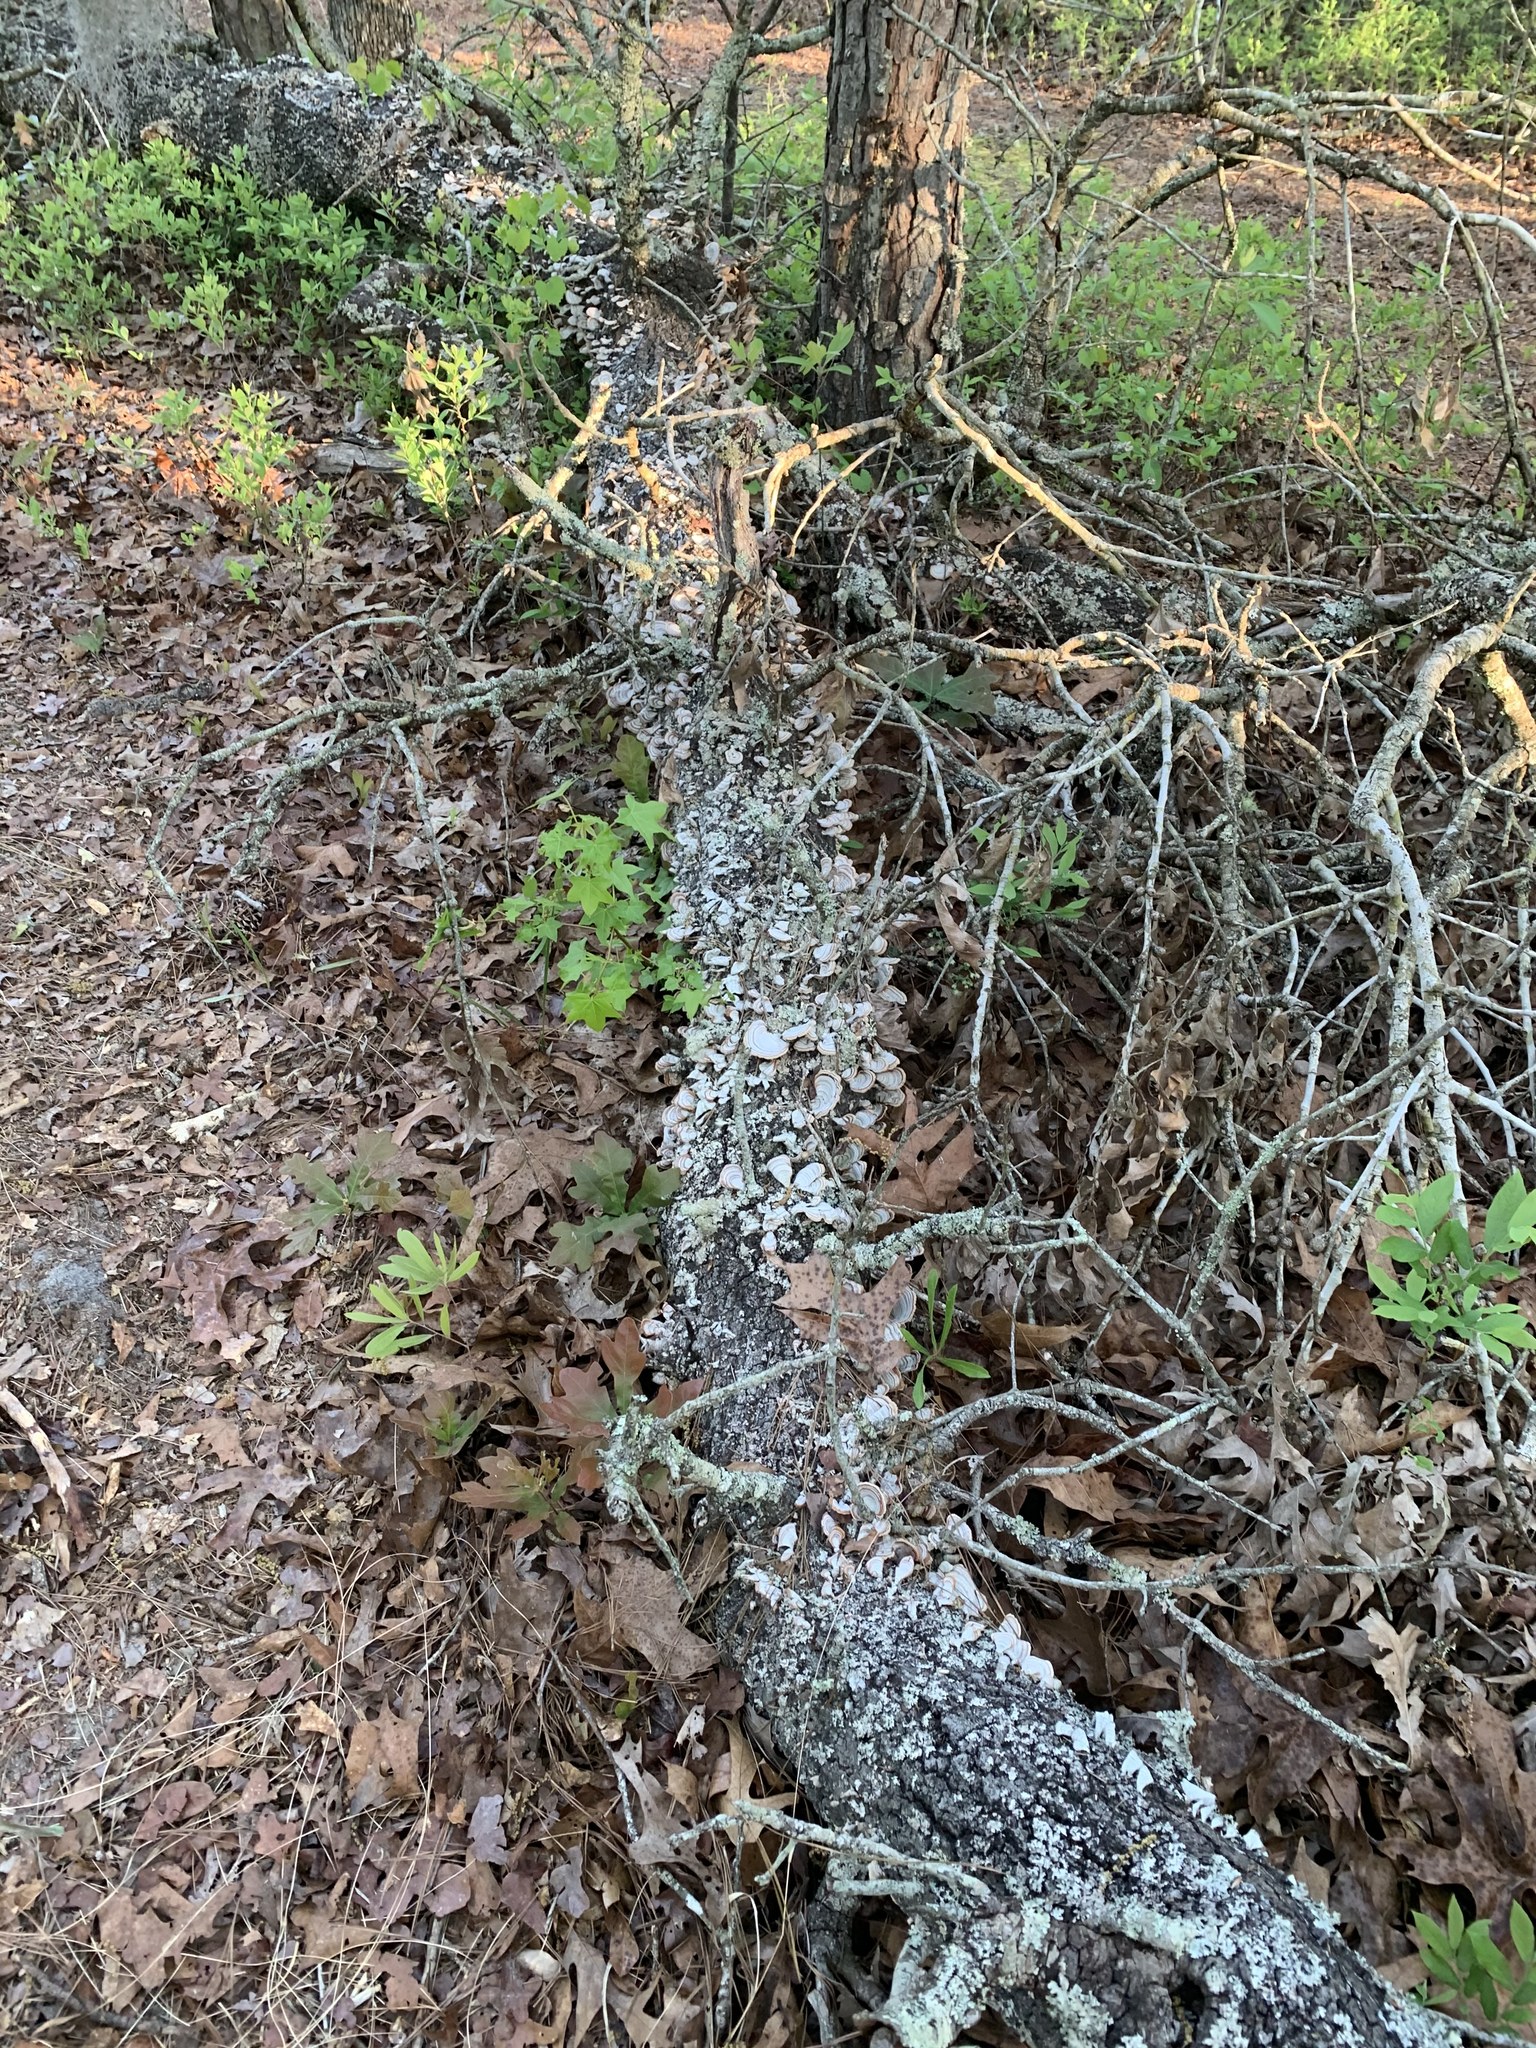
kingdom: Fungi
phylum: Basidiomycota
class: Agaricomycetes
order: Russulales
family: Stereaceae
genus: Stereum
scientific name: Stereum lobatum
